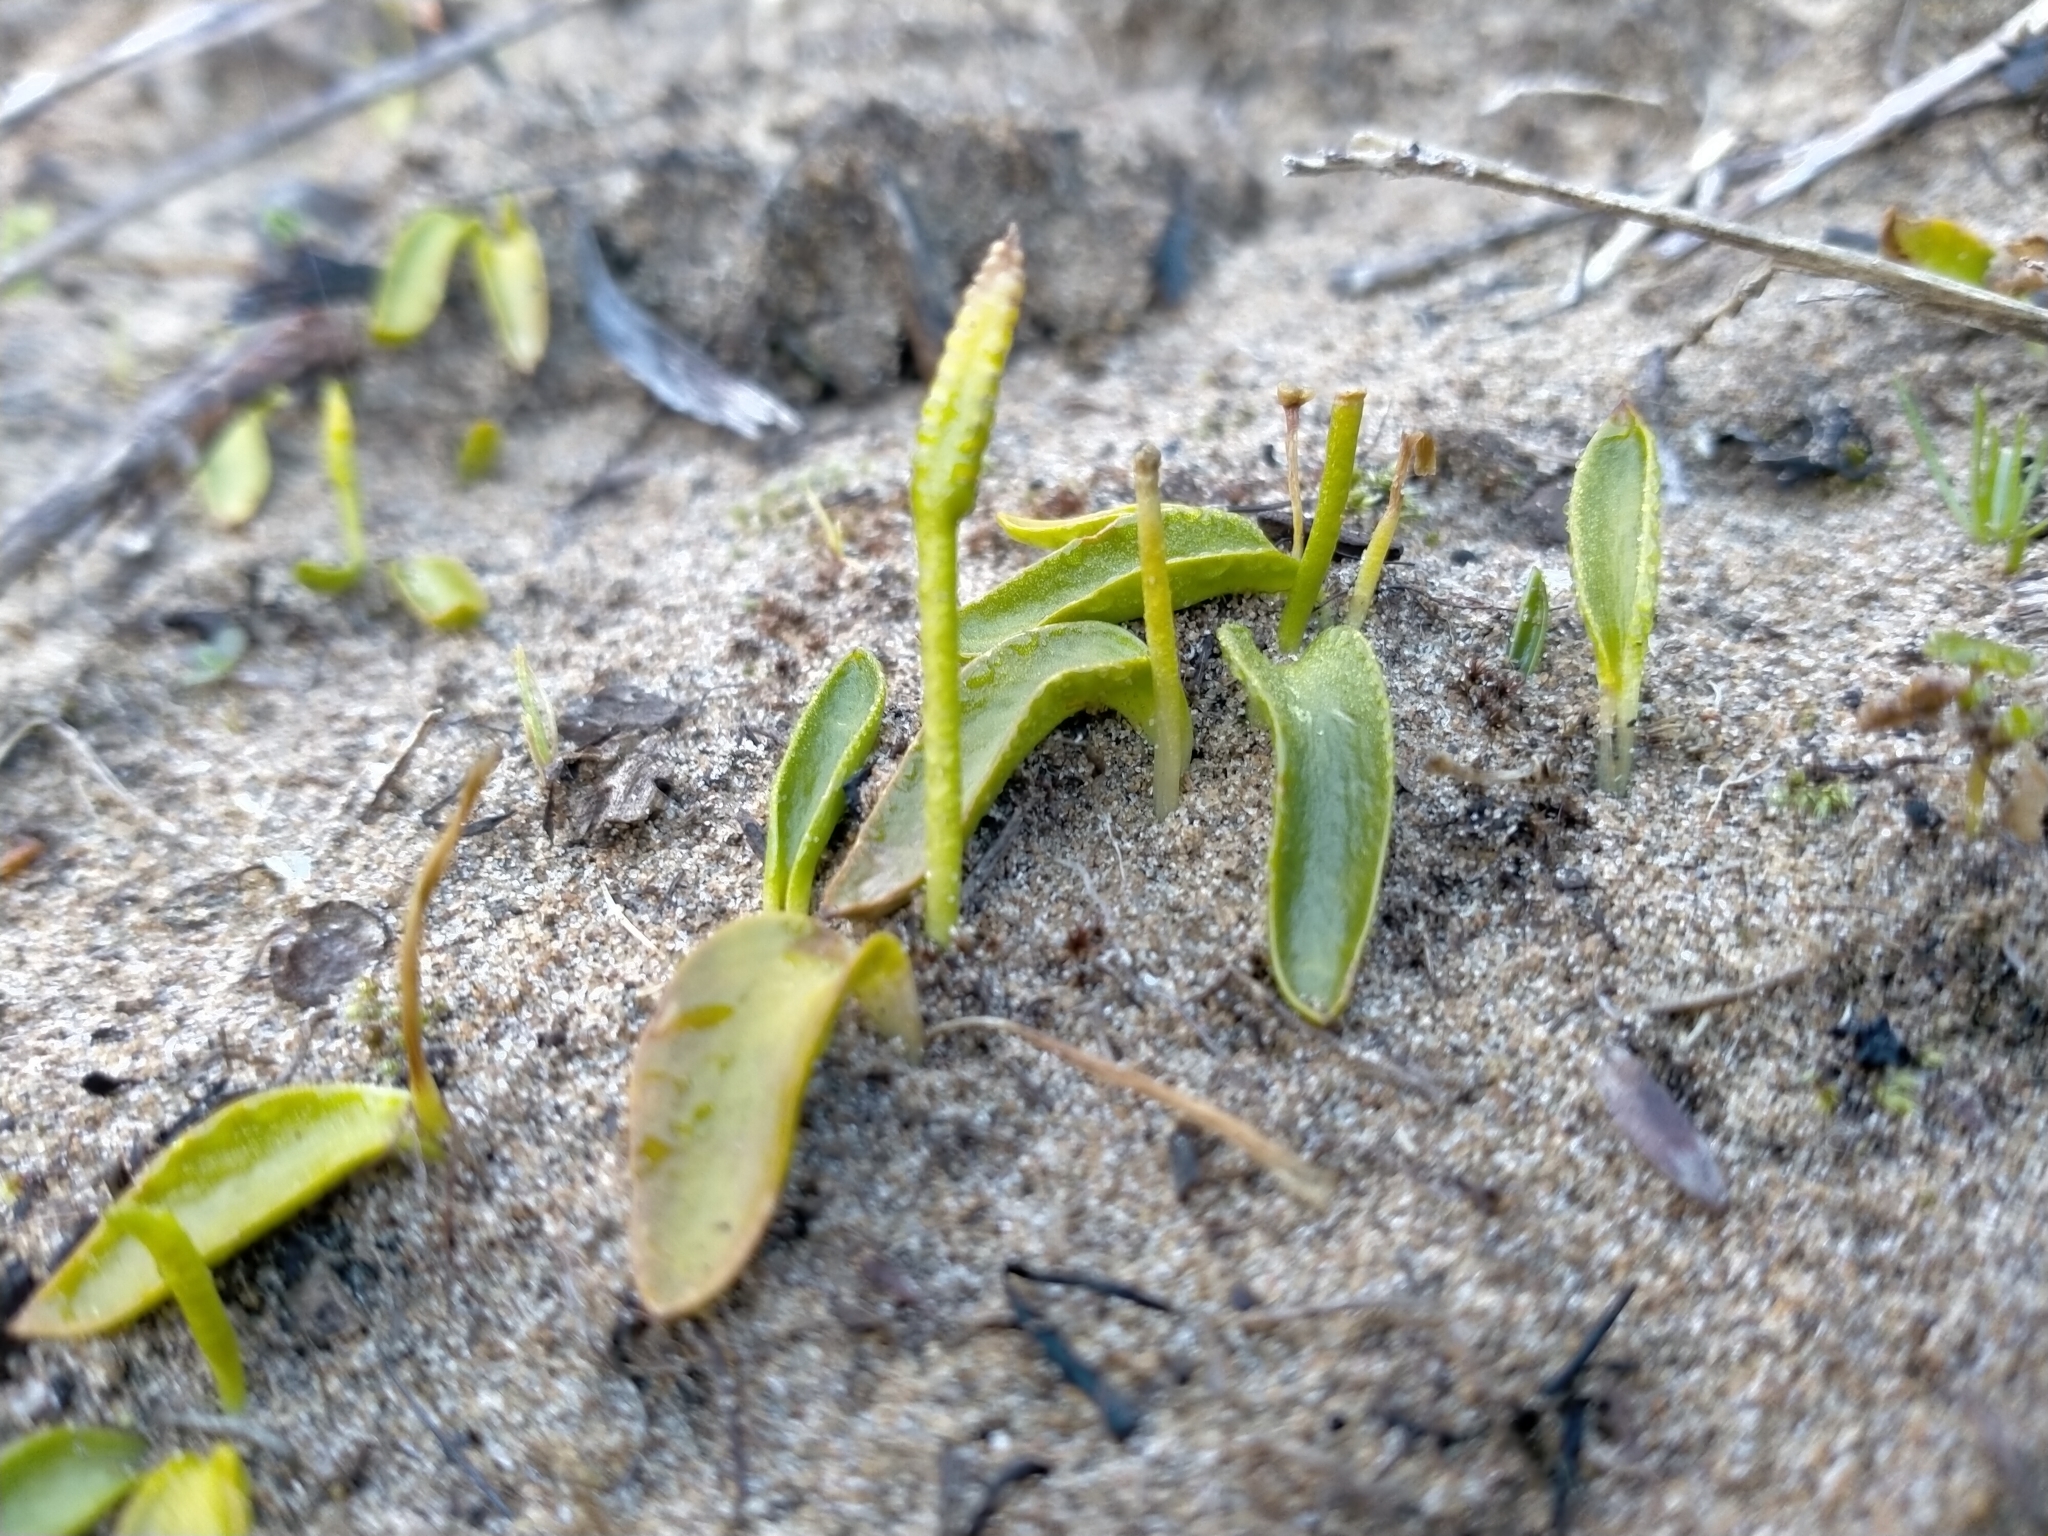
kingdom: Plantae
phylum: Tracheophyta
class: Polypodiopsida
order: Ophioglossales
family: Ophioglossaceae
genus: Ophioglossum
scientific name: Ophioglossum coriaceum
